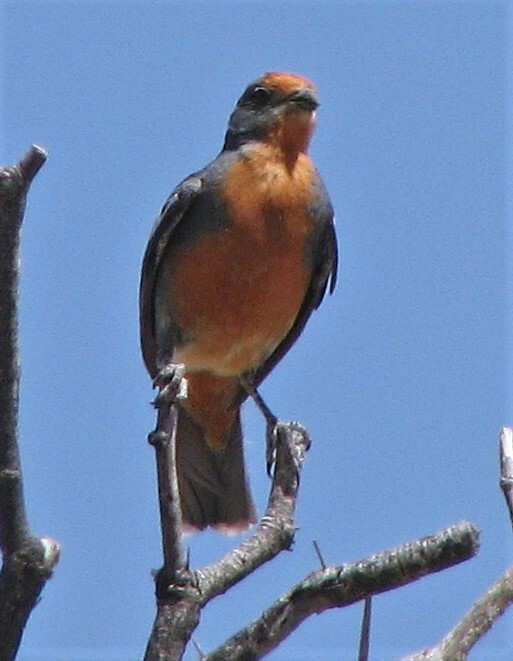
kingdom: Animalia
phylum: Chordata
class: Aves
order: Passeriformes
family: Cotingidae
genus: Phytotoma
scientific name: Phytotoma rutila
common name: White-tipped plantcutter
